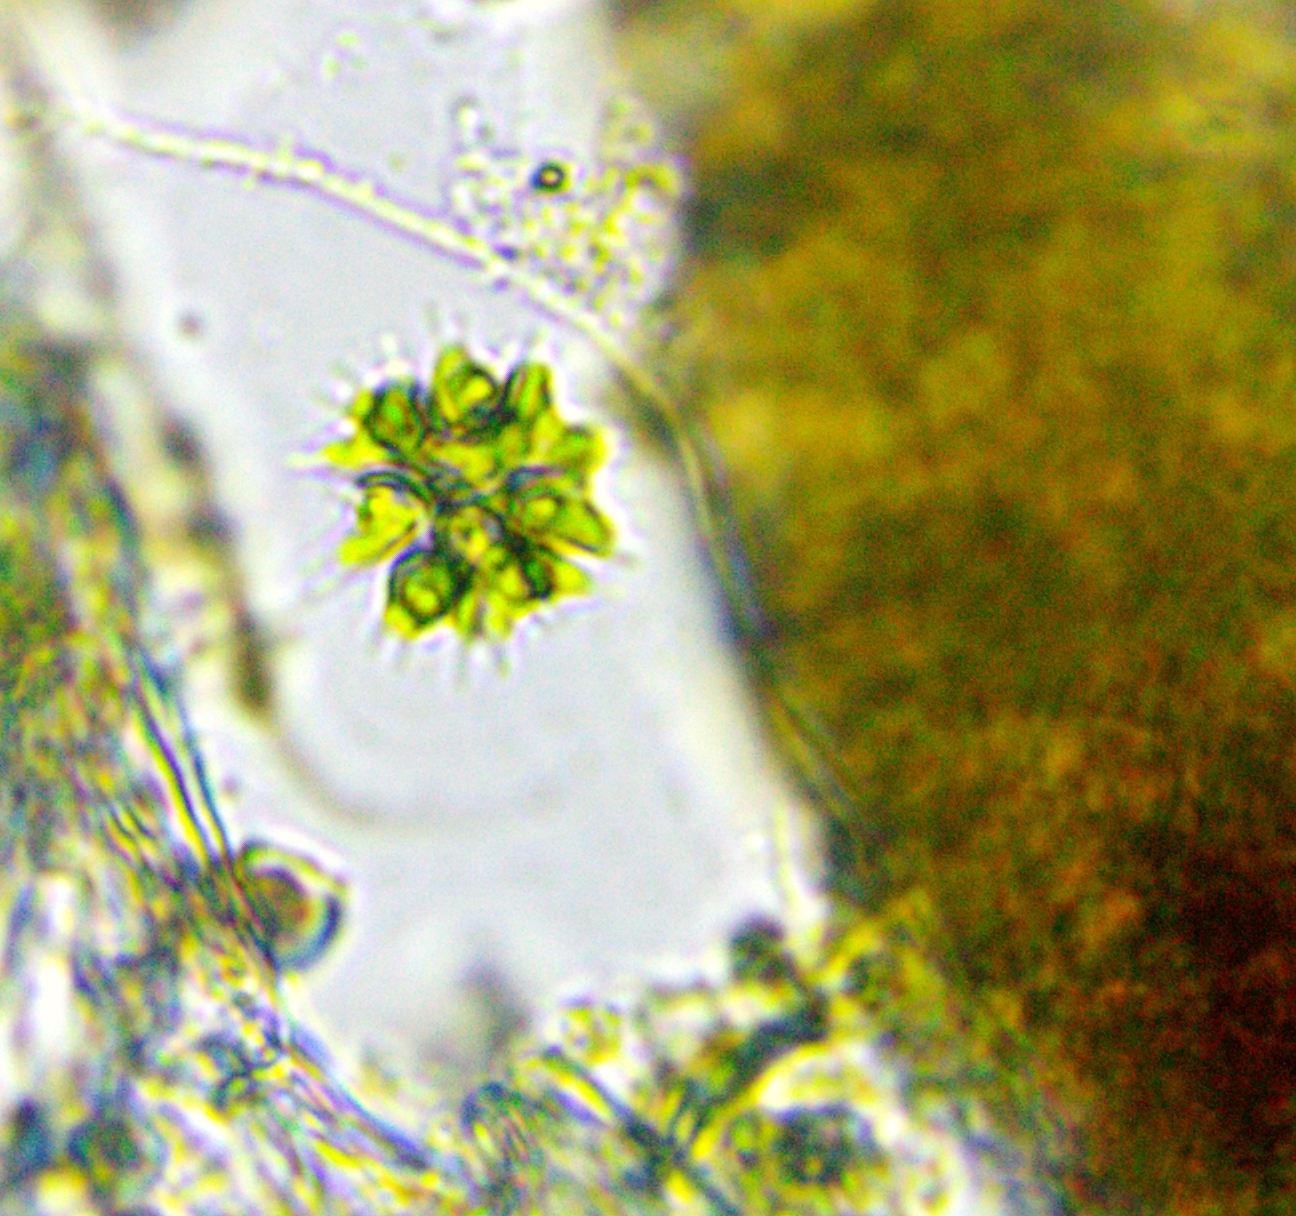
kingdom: Plantae
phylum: Chlorophyta
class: Chlorophyceae
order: Sphaeropleales
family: Hydrodictyaceae
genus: Sorastrum
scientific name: Sorastrum spinulosum
